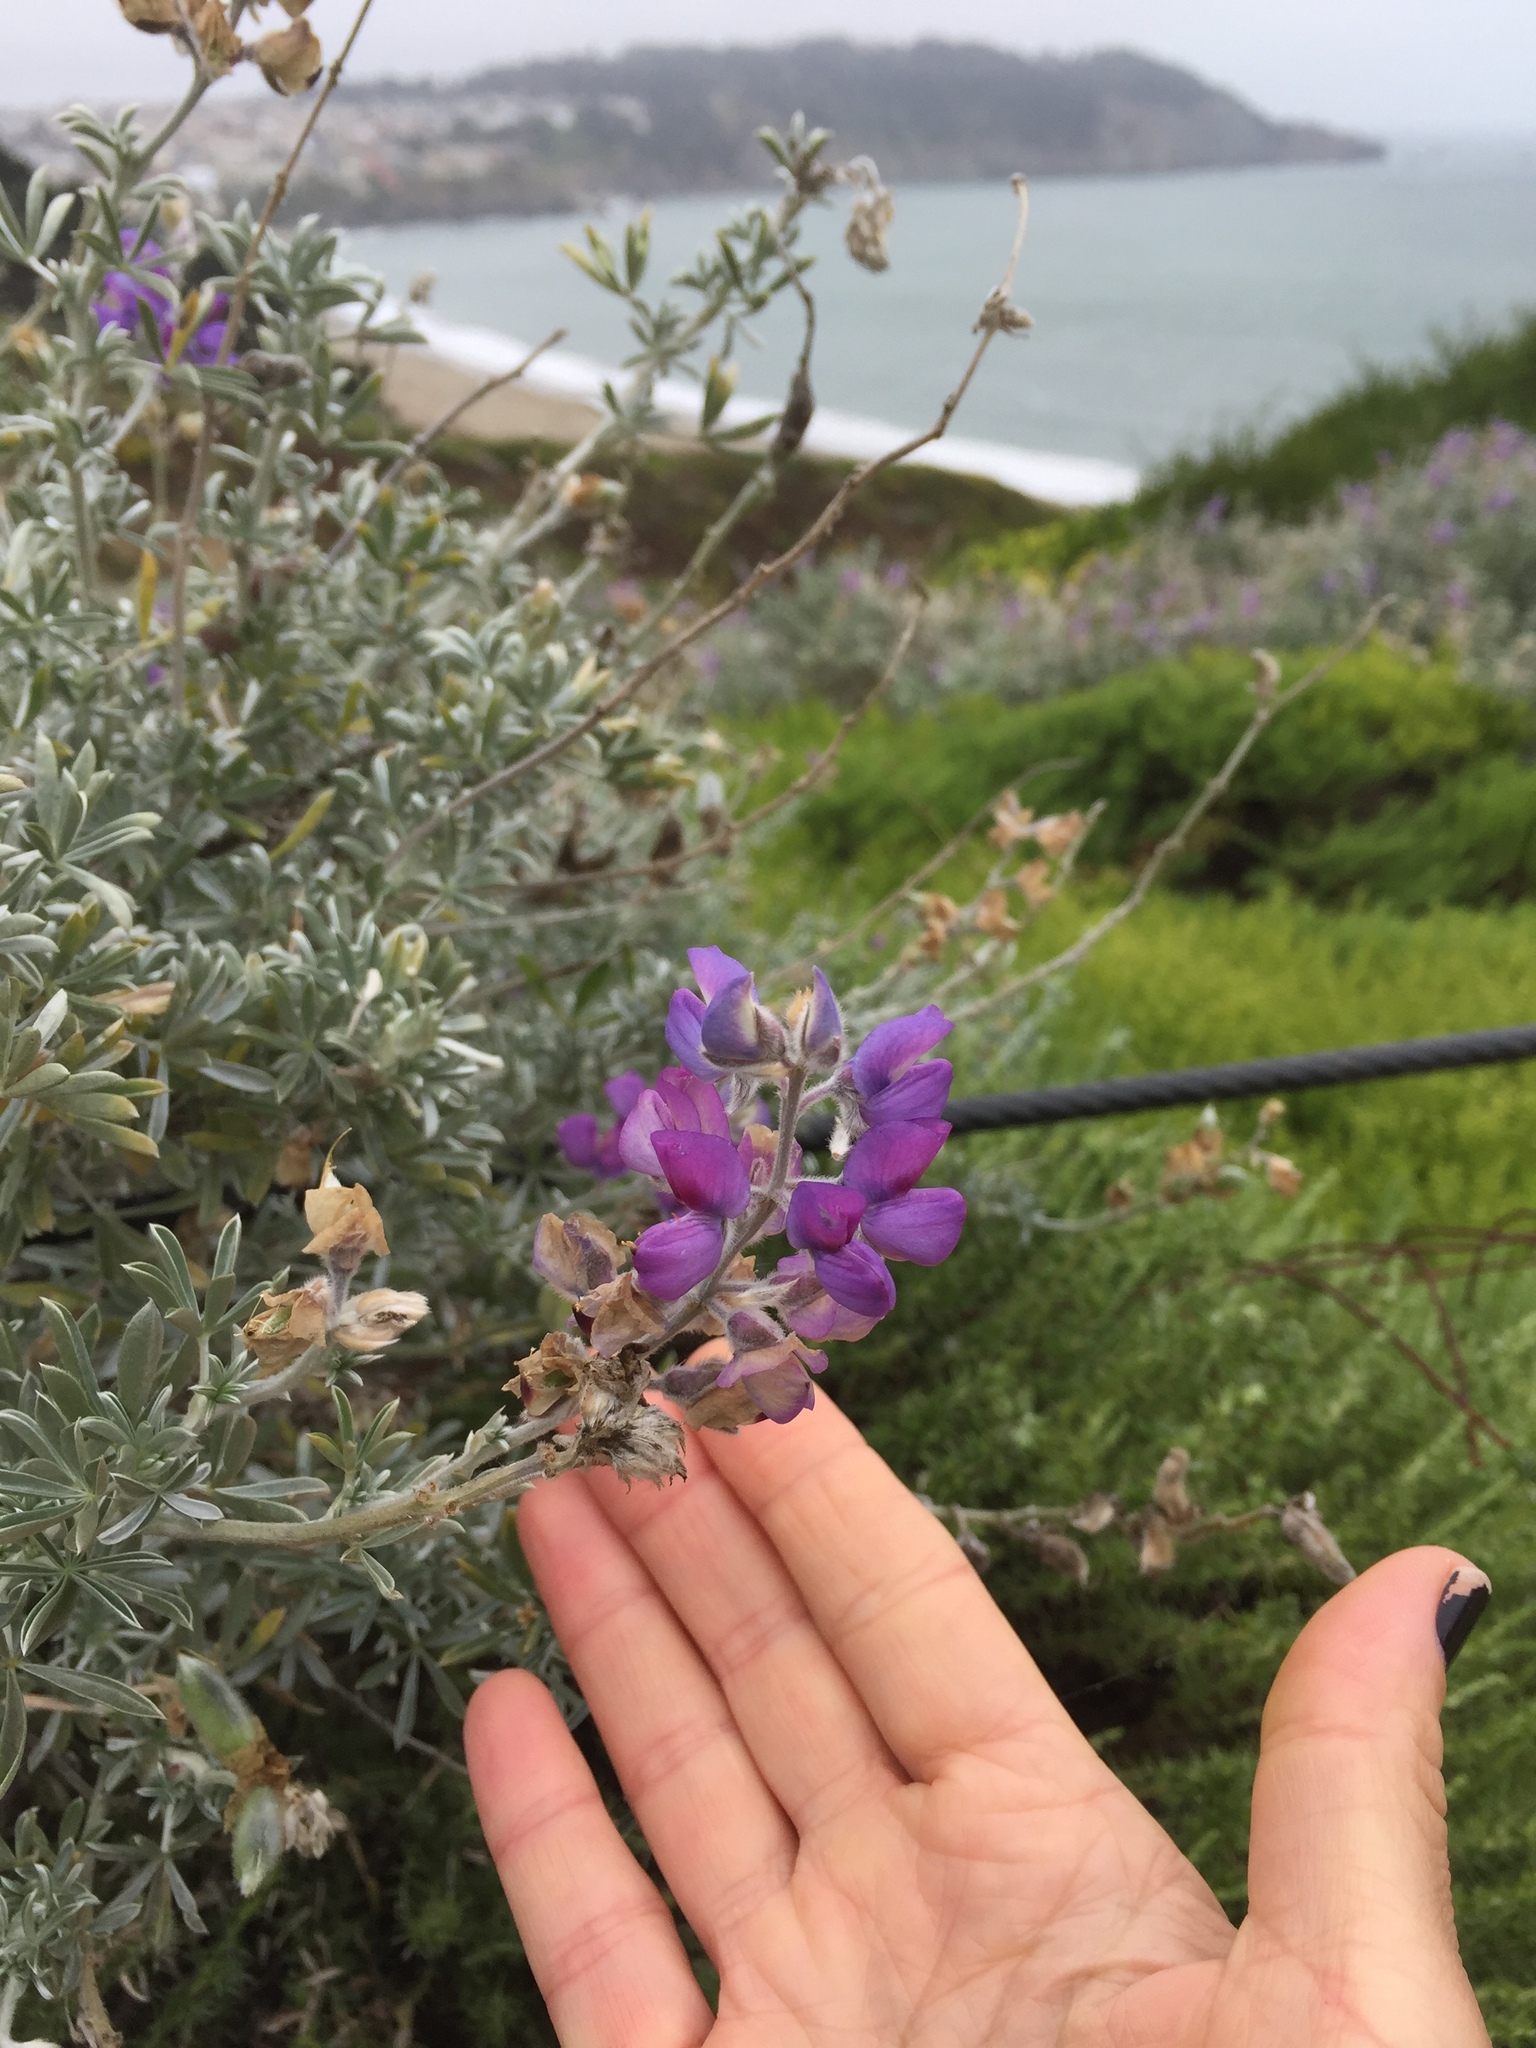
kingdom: Plantae
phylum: Tracheophyta
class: Magnoliopsida
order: Fabales
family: Fabaceae
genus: Lupinus
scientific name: Lupinus chamissonis
